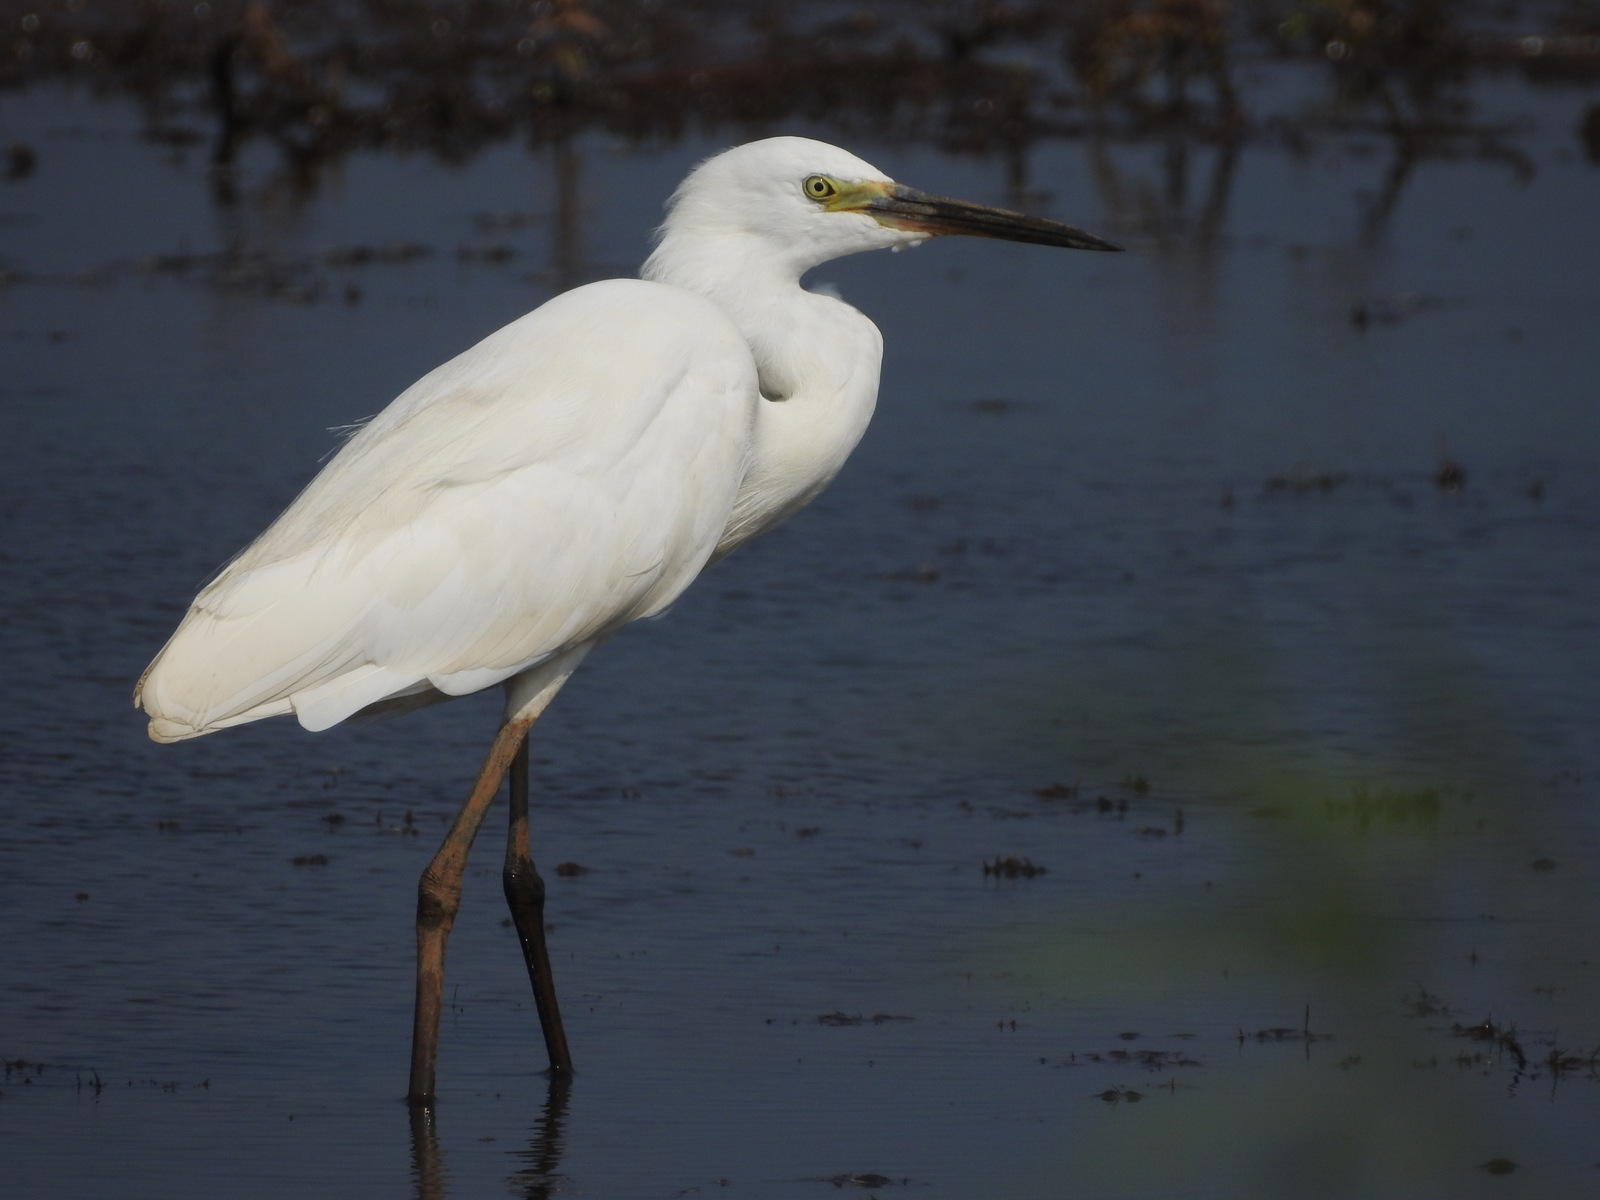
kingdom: Animalia
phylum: Chordata
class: Aves
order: Pelecaniformes
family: Ardeidae
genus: Egretta
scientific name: Egretta garzetta
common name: Little egret
